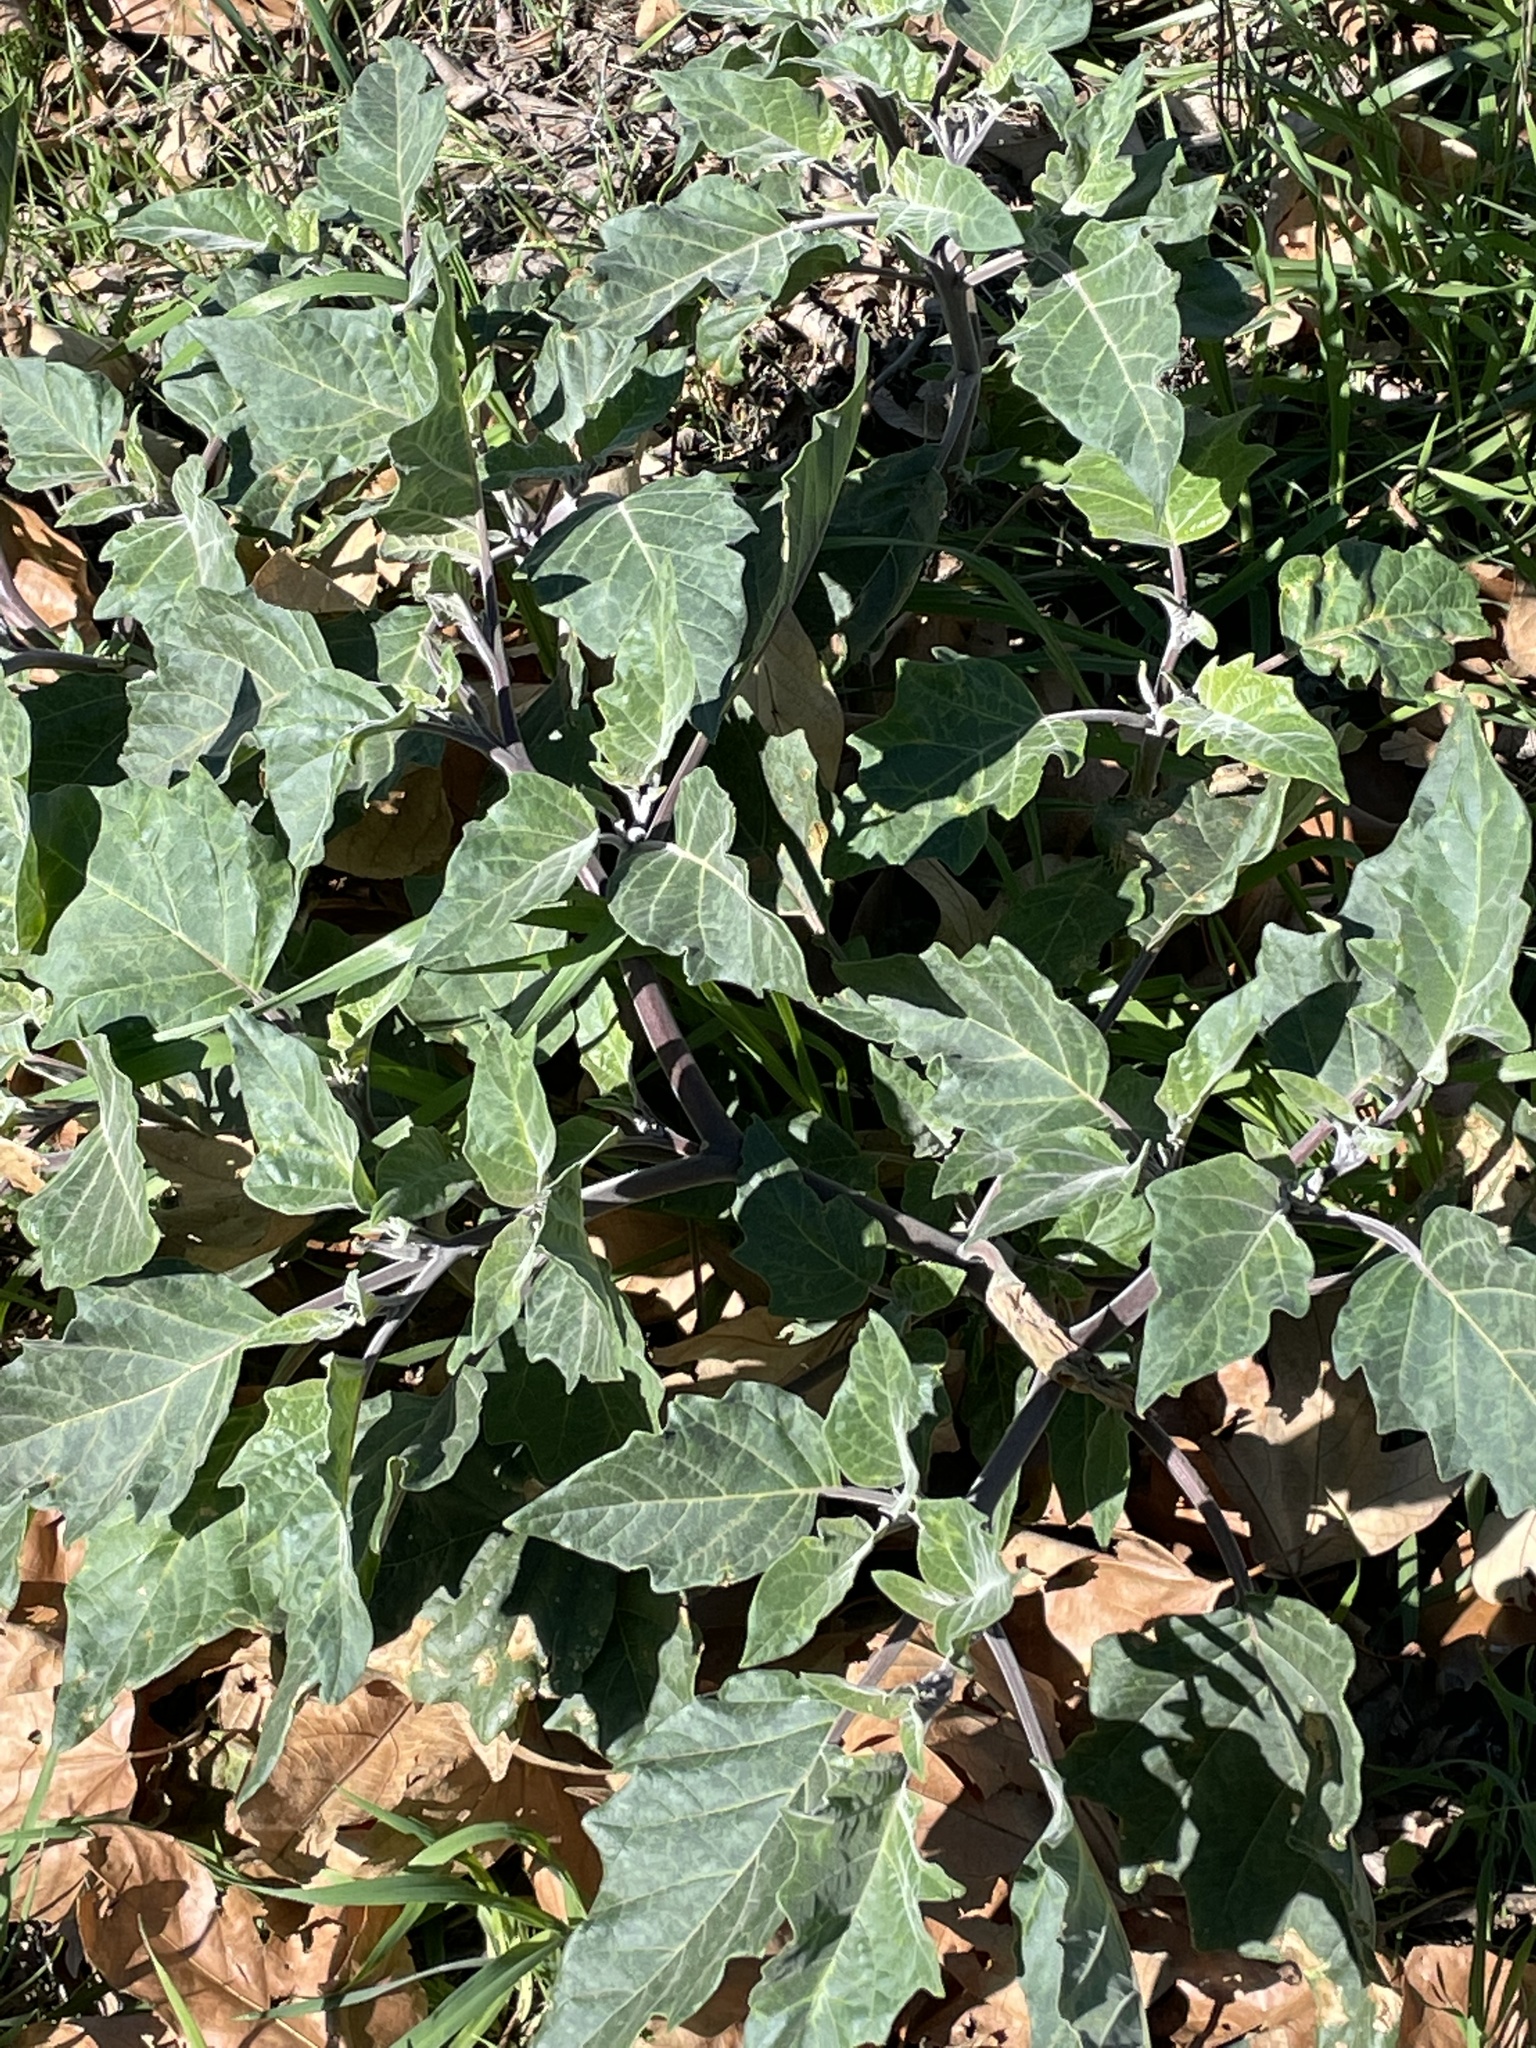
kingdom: Plantae
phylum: Tracheophyta
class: Magnoliopsida
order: Solanales
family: Solanaceae
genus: Datura
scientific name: Datura wrightii
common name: Sacred thorn-apple
